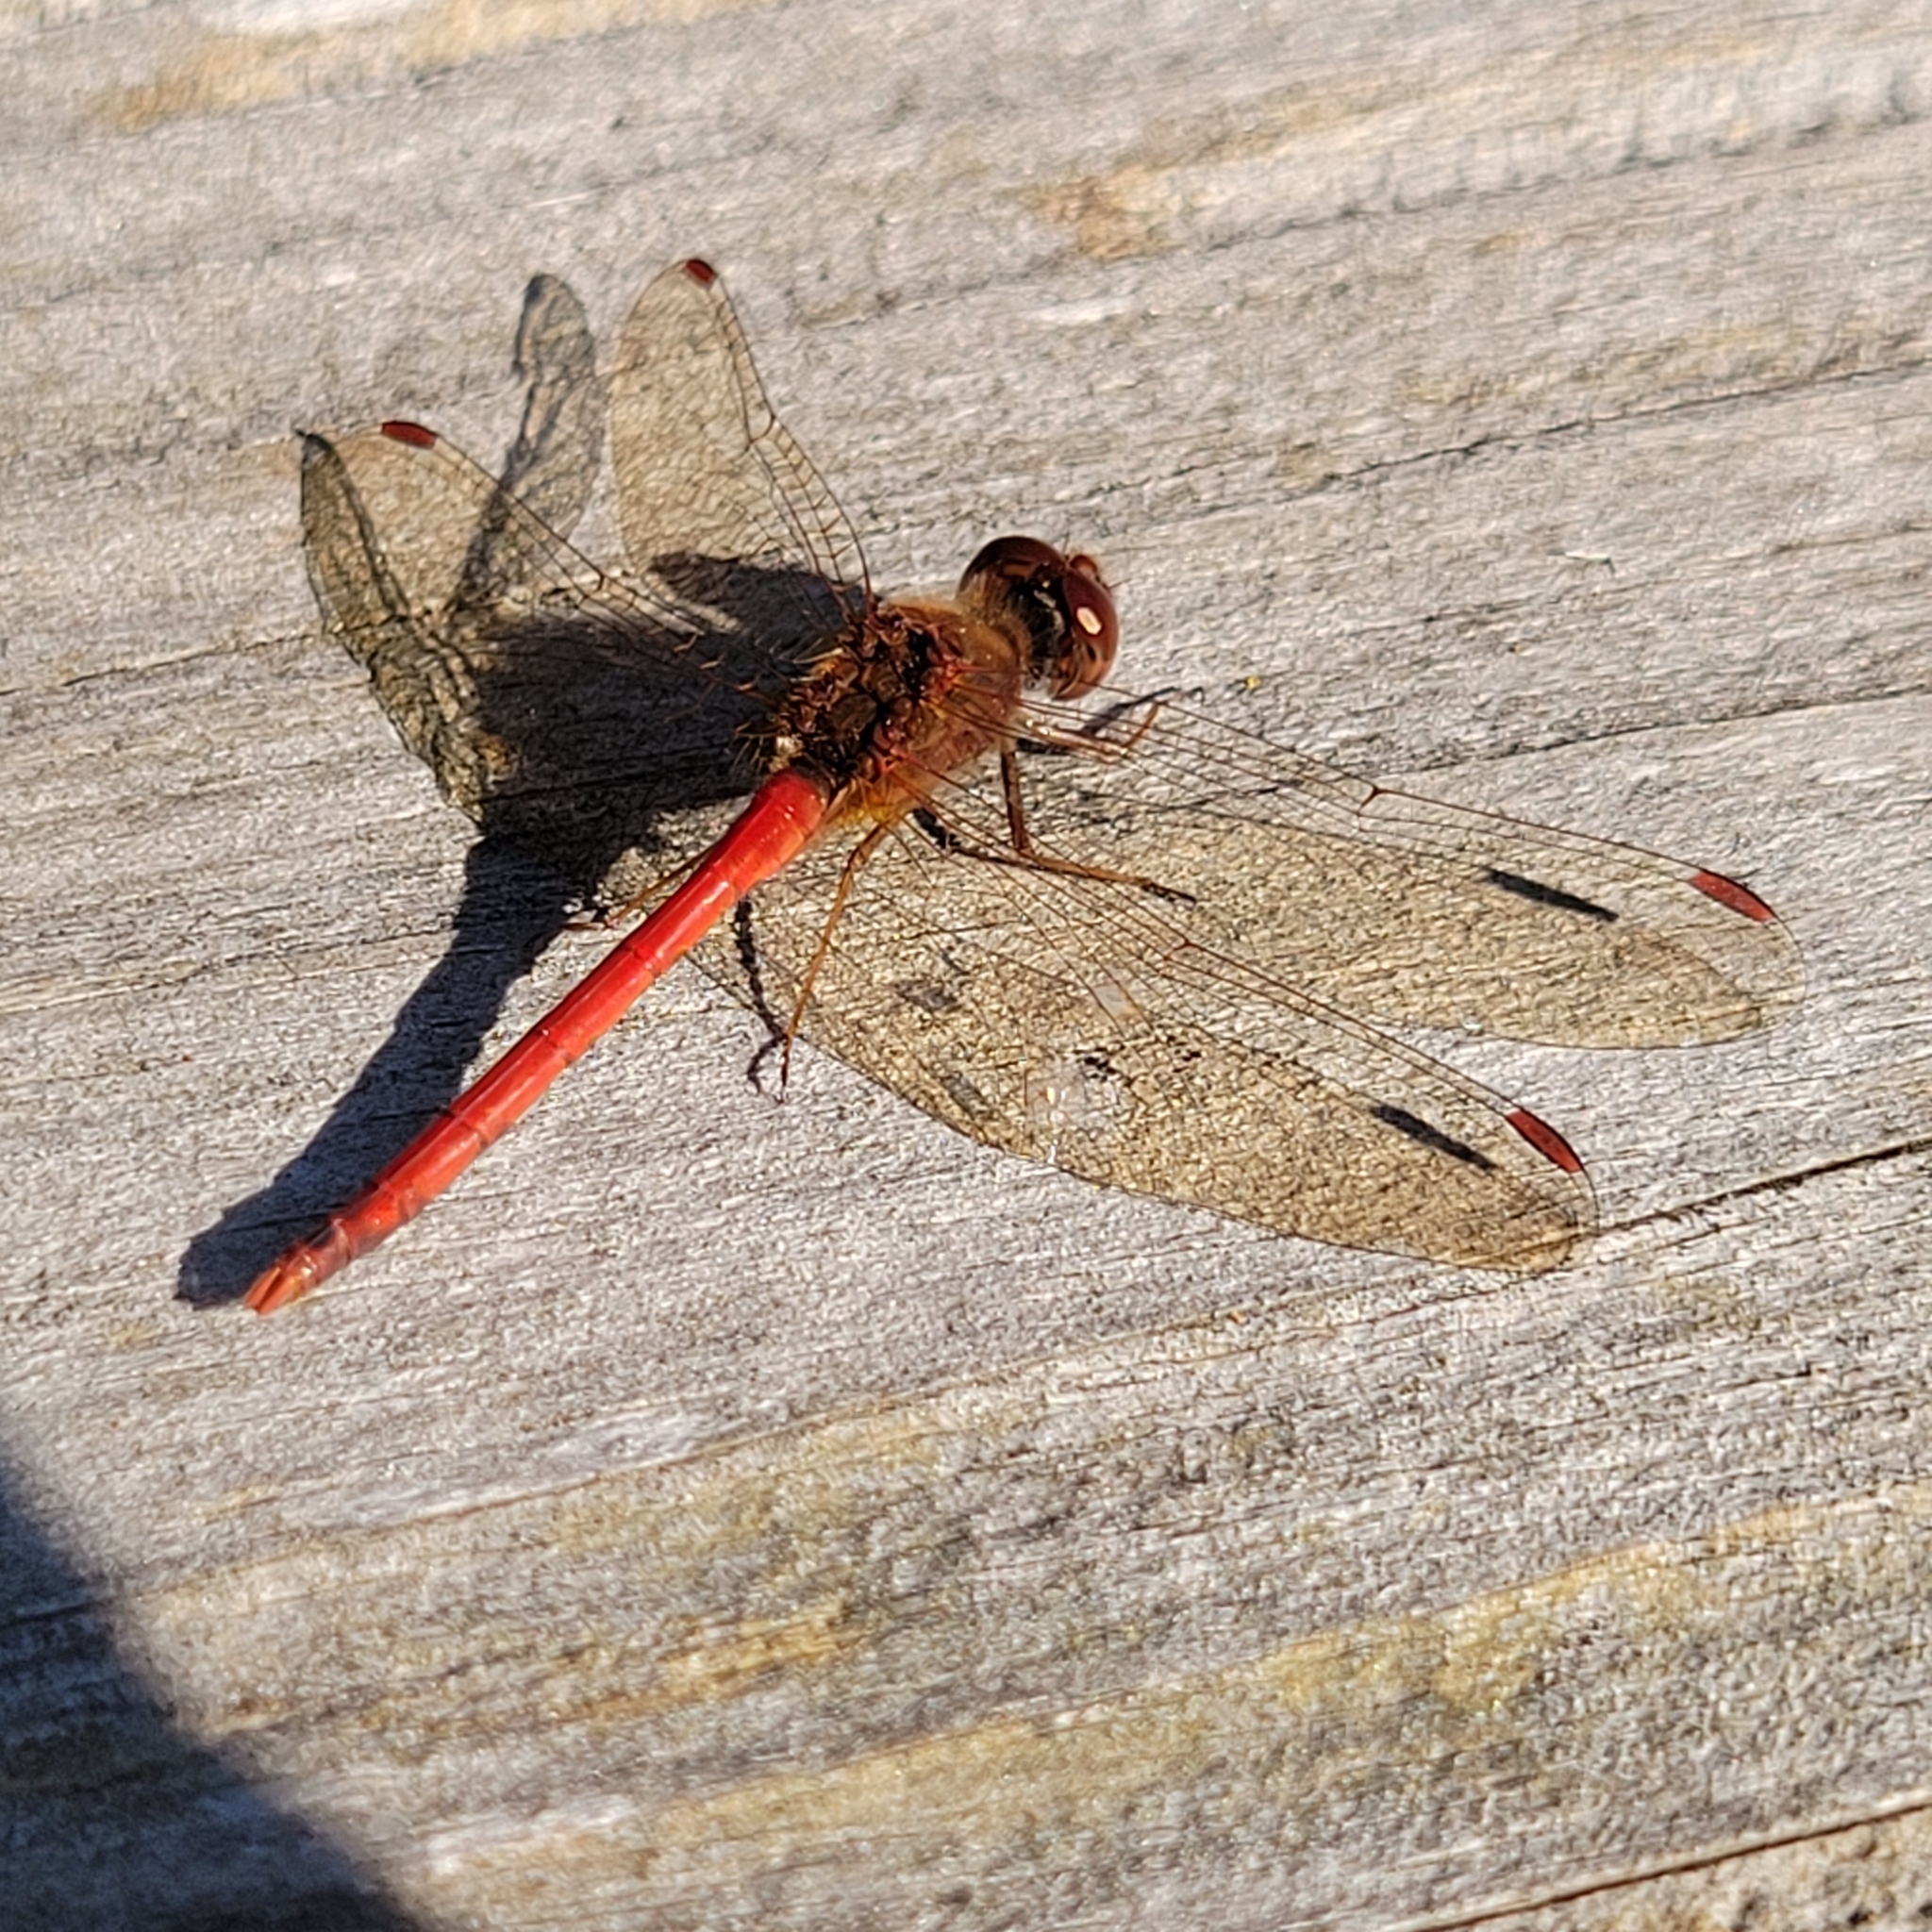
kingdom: Animalia
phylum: Arthropoda
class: Insecta
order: Odonata
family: Libellulidae
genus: Sympetrum
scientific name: Sympetrum vicinum
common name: Autumn meadowhawk
